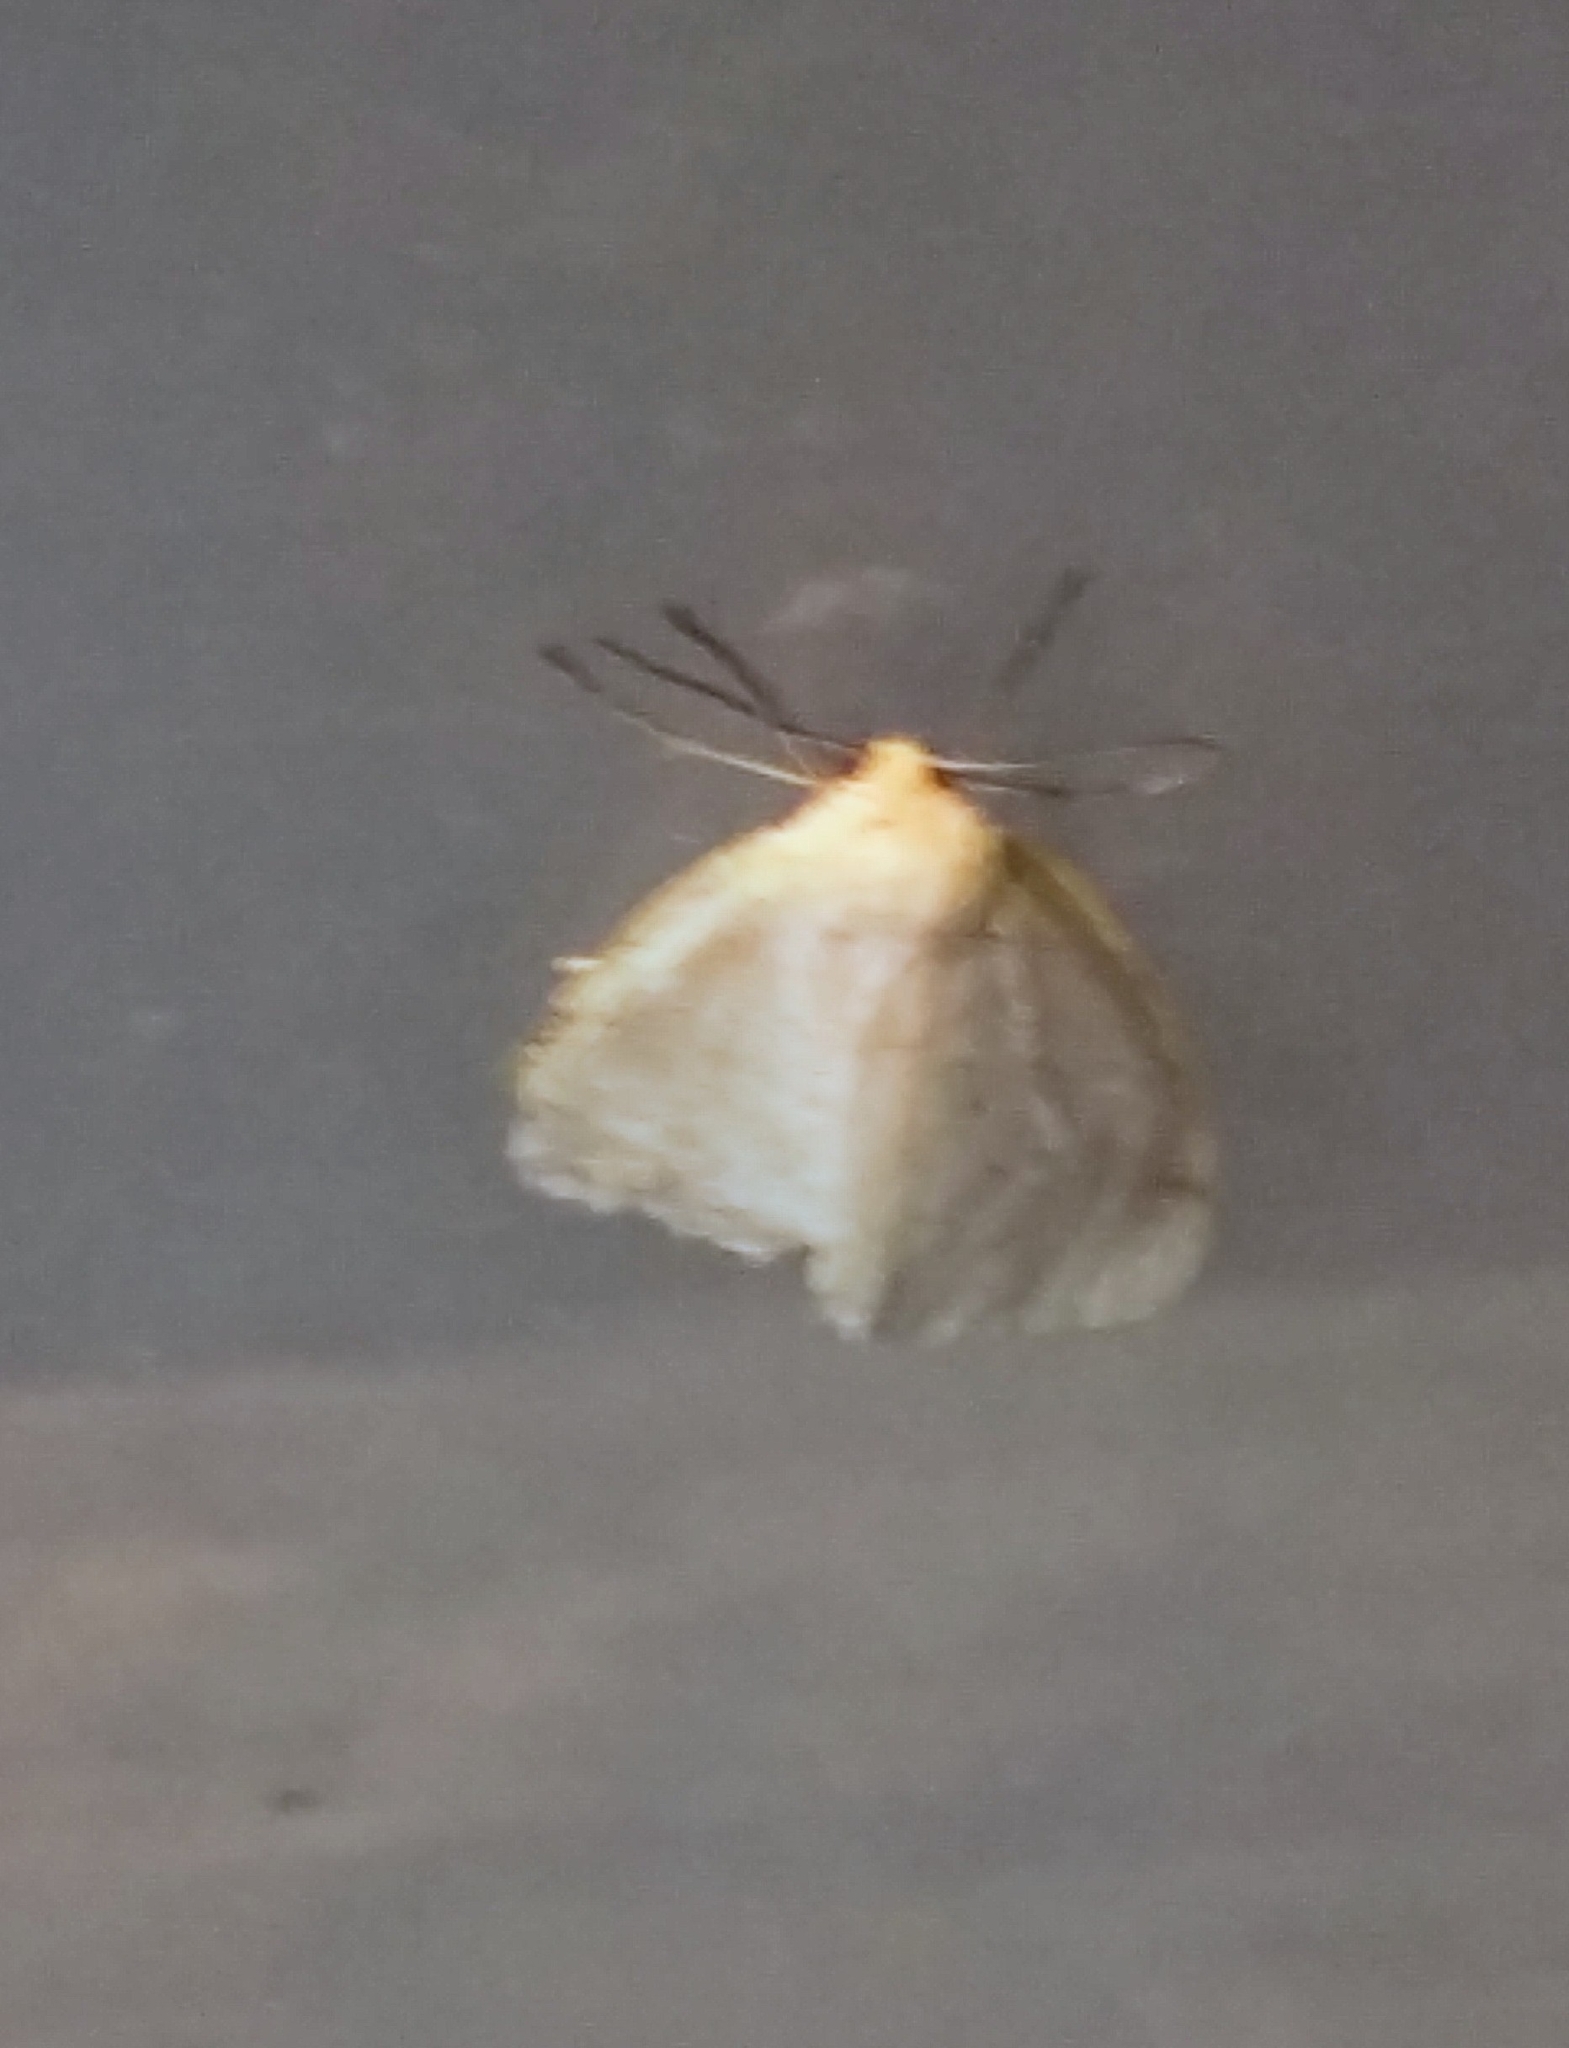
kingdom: Animalia
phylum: Arthropoda
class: Insecta
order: Lepidoptera
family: Erebidae
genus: Cycnia
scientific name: Cycnia tenera
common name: Delicate cycnia moth
